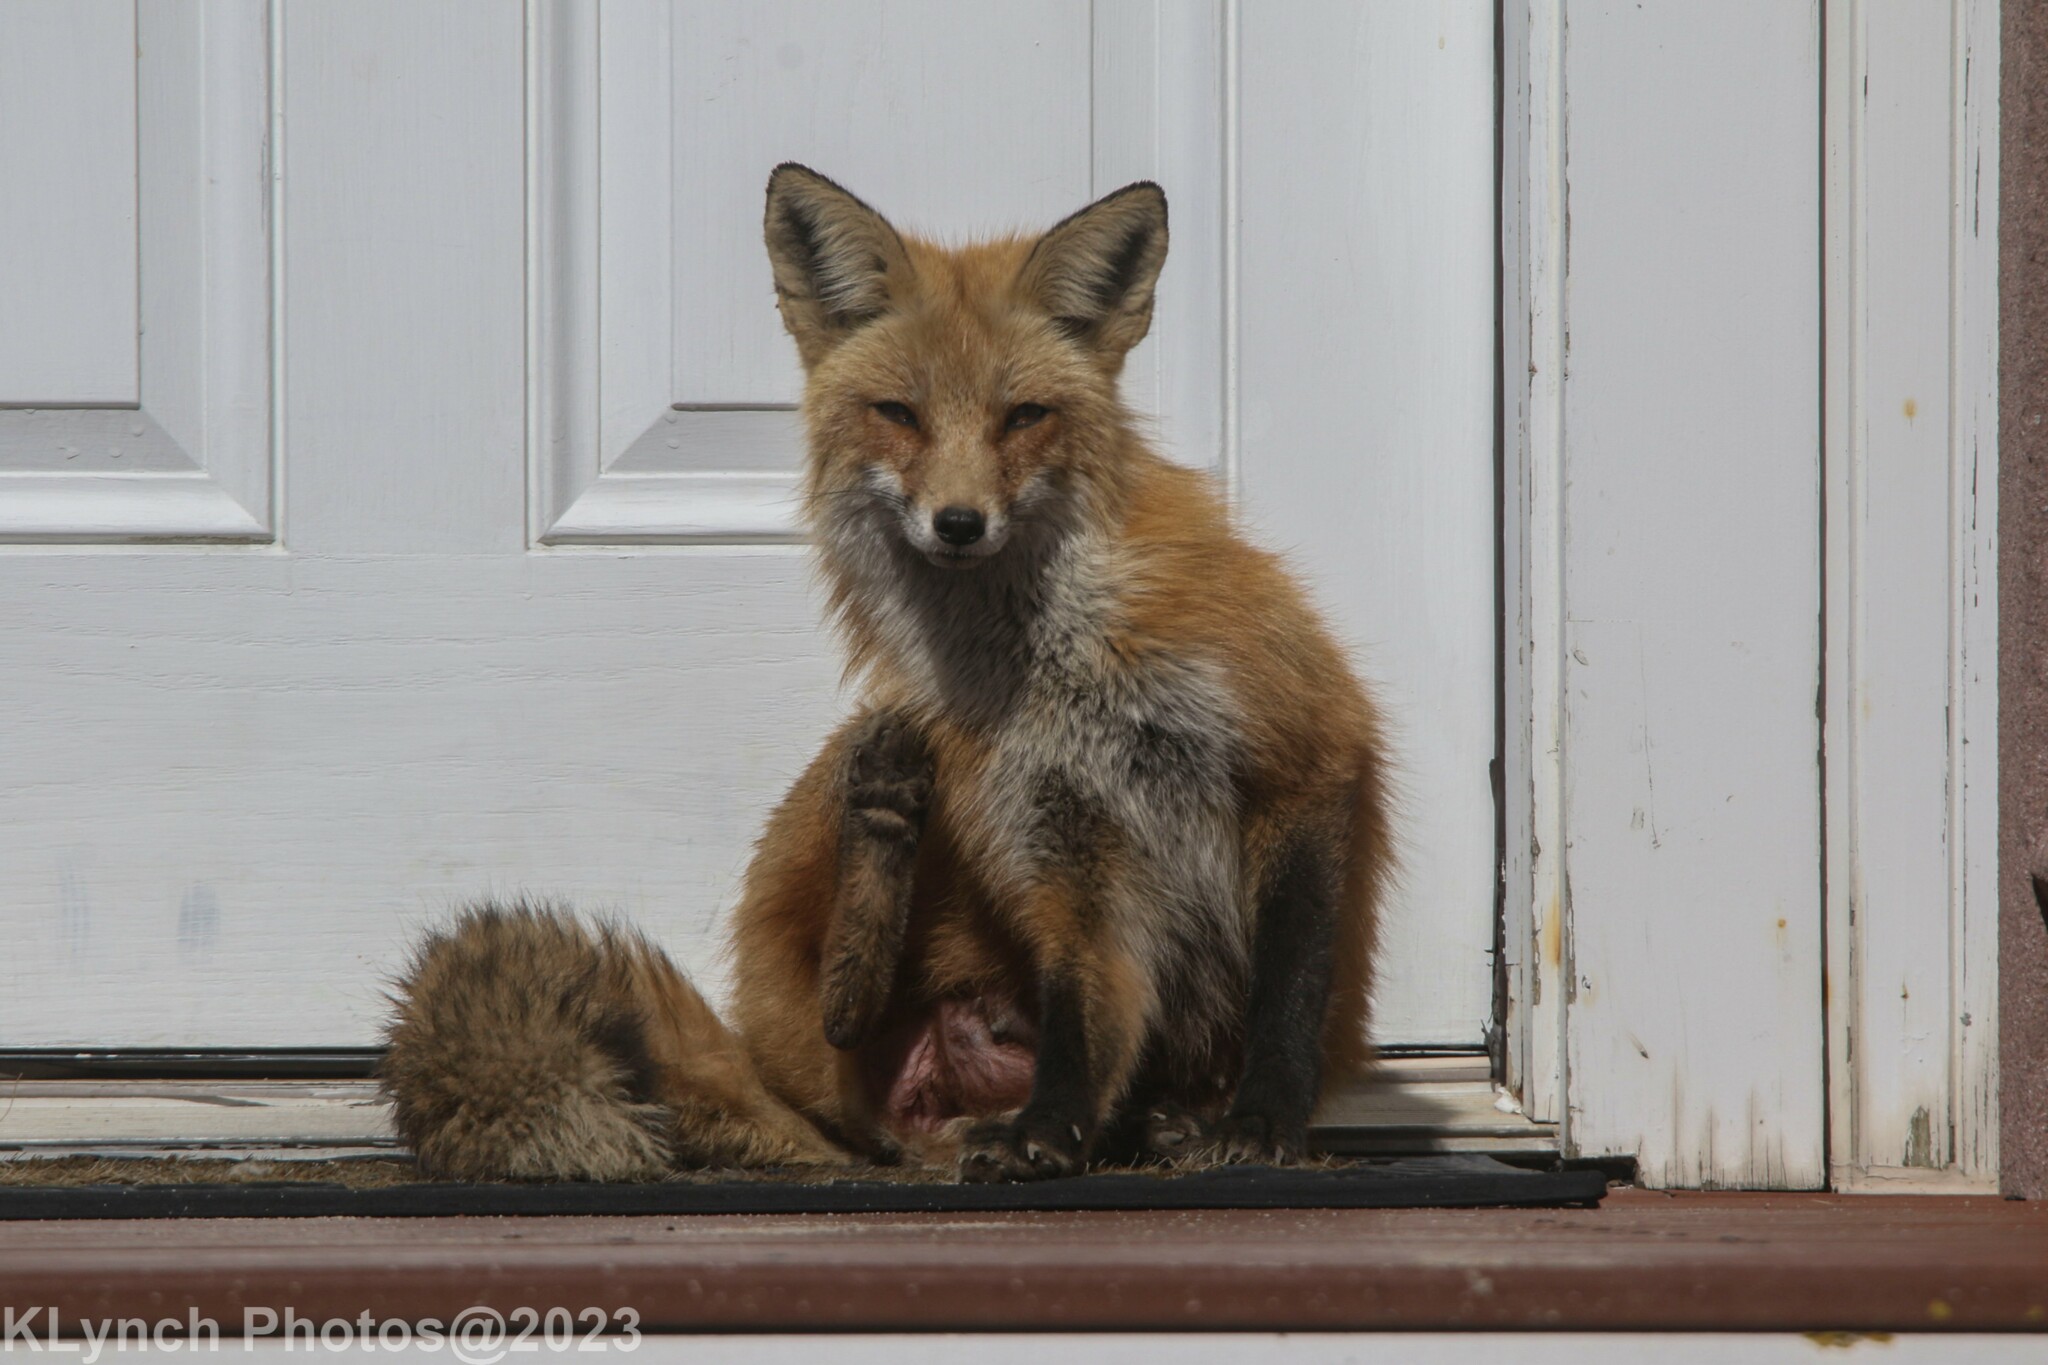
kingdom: Animalia
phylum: Chordata
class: Mammalia
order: Carnivora
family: Canidae
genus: Vulpes
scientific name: Vulpes vulpes
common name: Red fox
